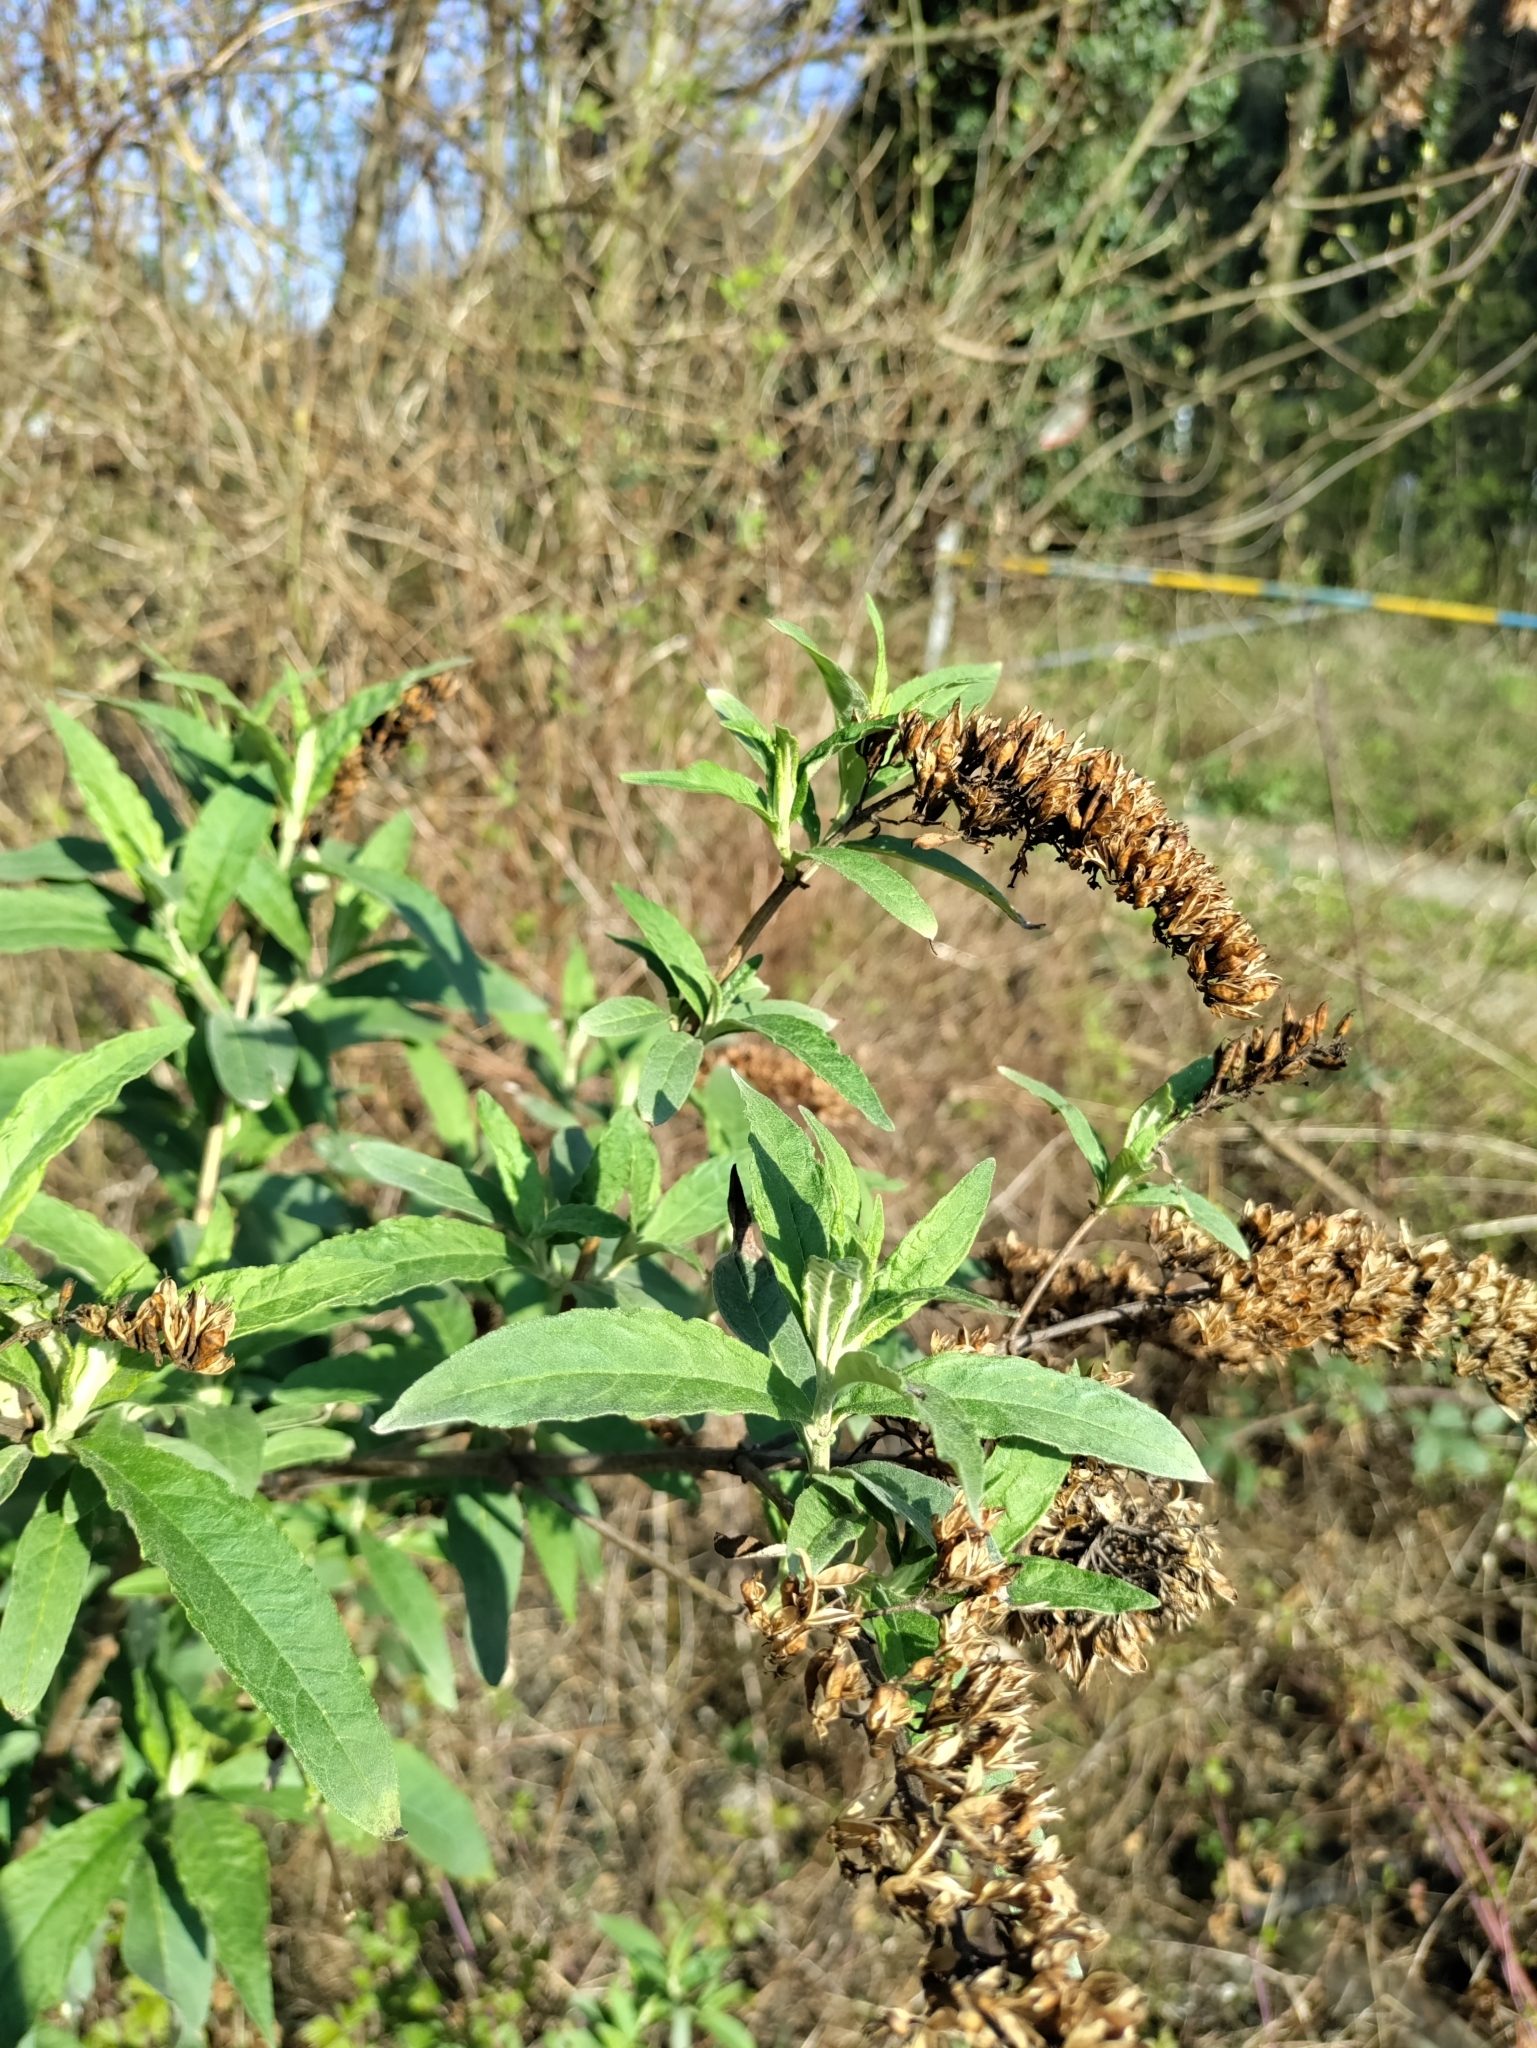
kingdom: Plantae
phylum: Tracheophyta
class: Magnoliopsida
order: Lamiales
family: Scrophulariaceae
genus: Buddleja
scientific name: Buddleja davidii
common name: Butterfly-bush
